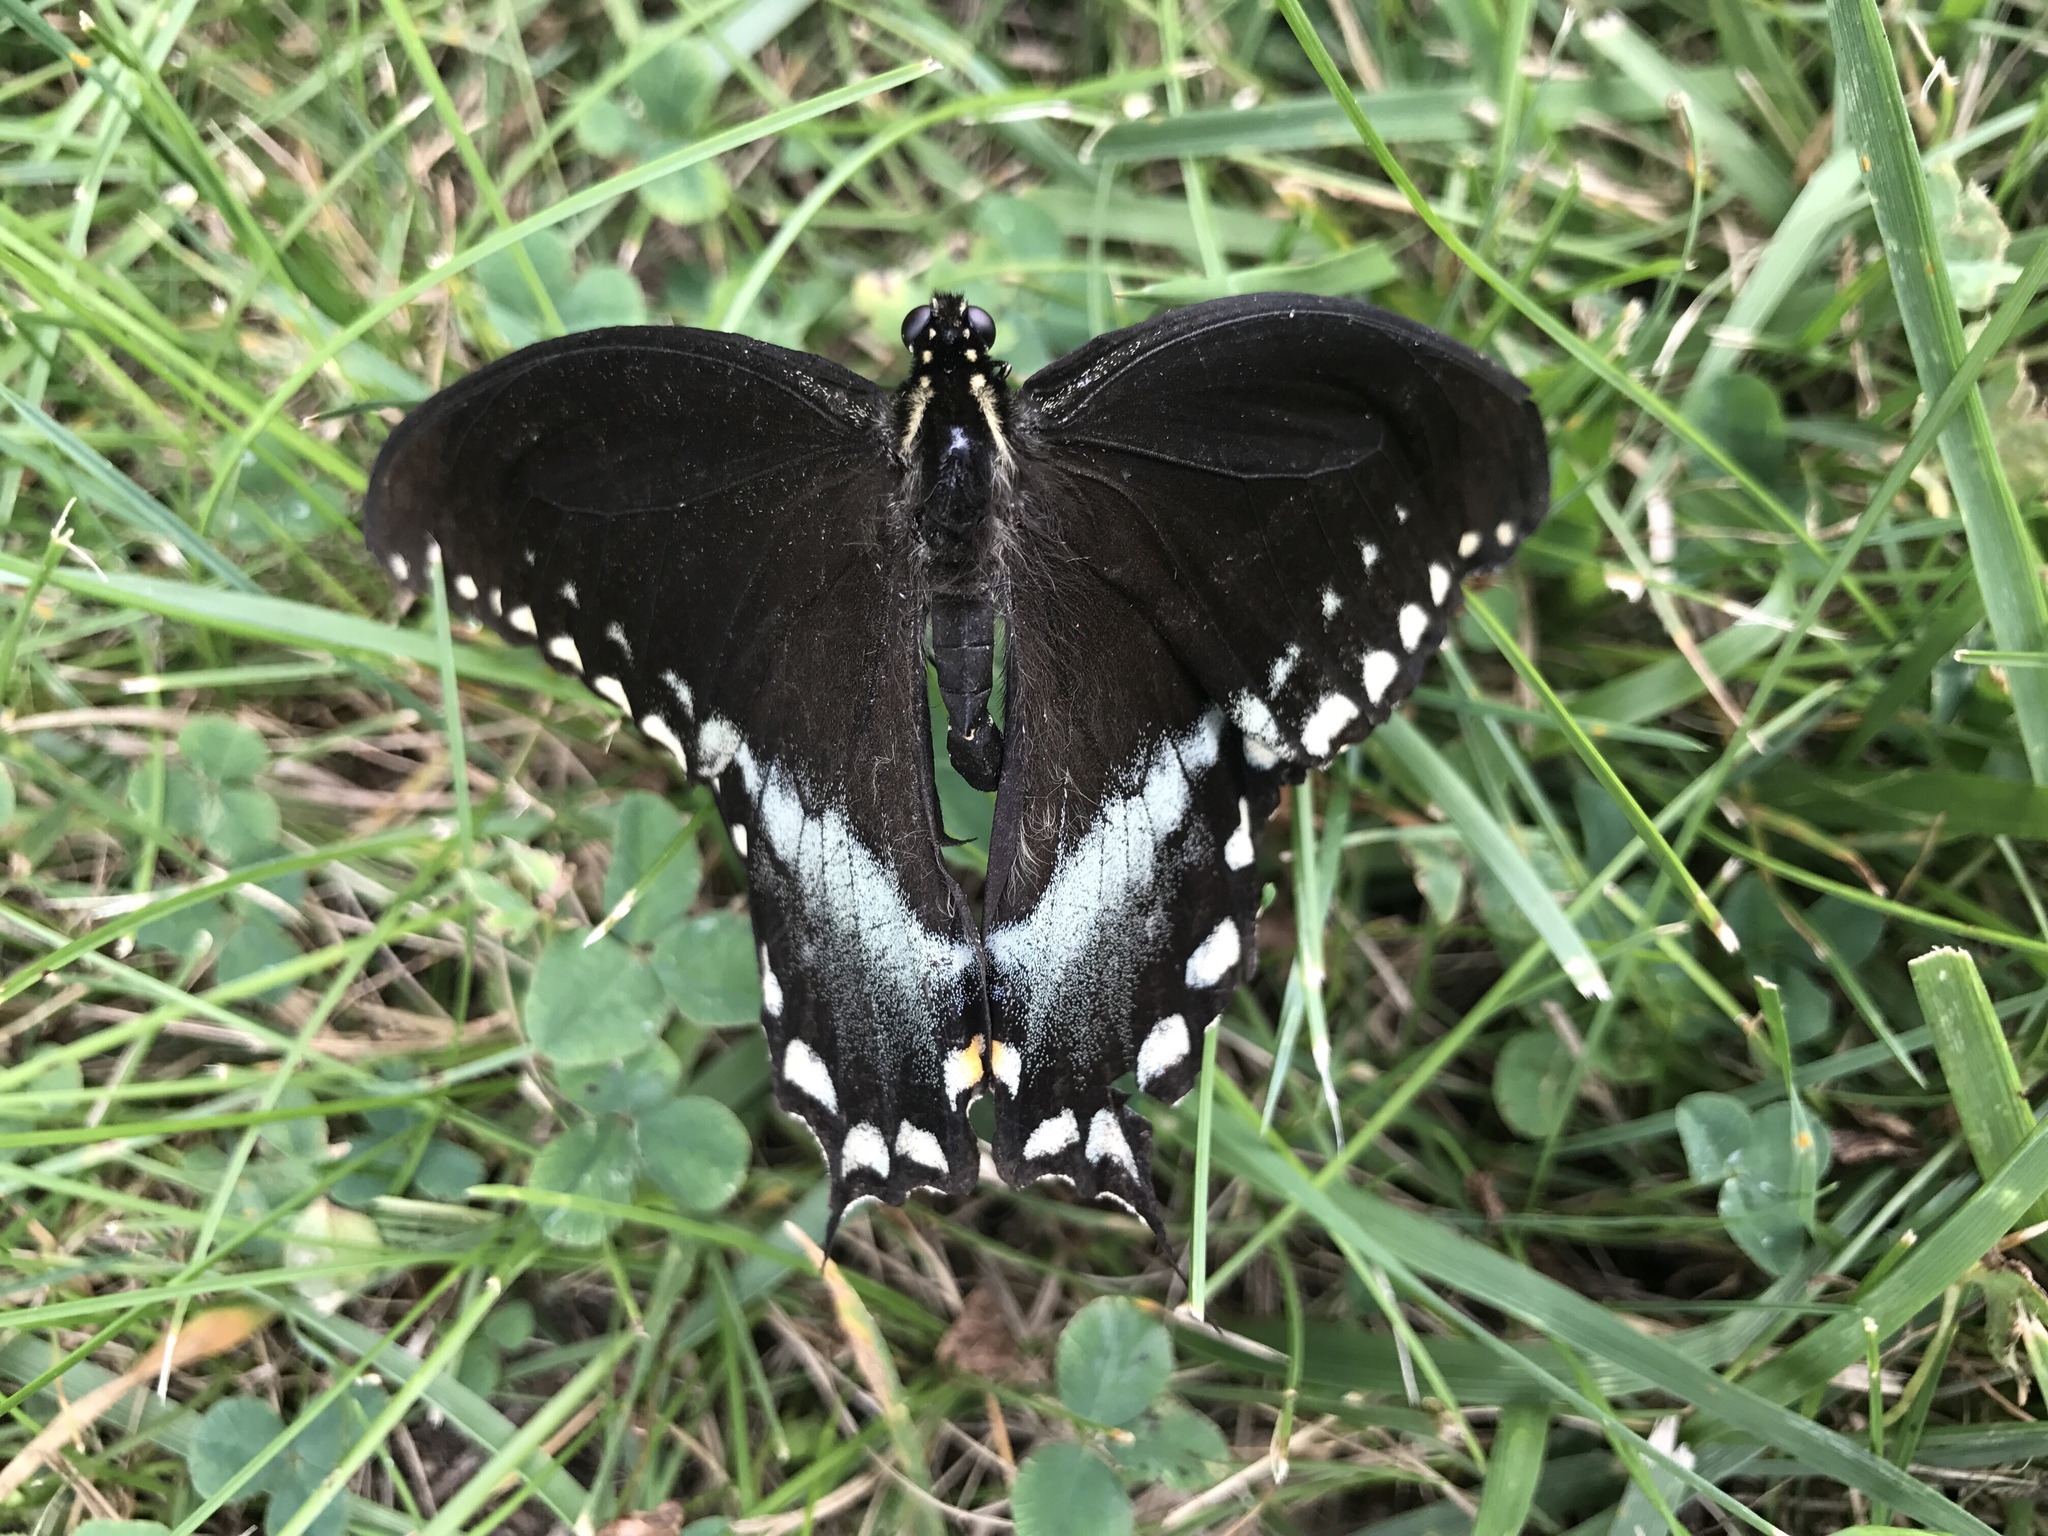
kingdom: Animalia
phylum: Arthropoda
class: Insecta
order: Lepidoptera
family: Papilionidae
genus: Papilio
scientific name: Papilio troilus
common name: Spicebush swallowtail
